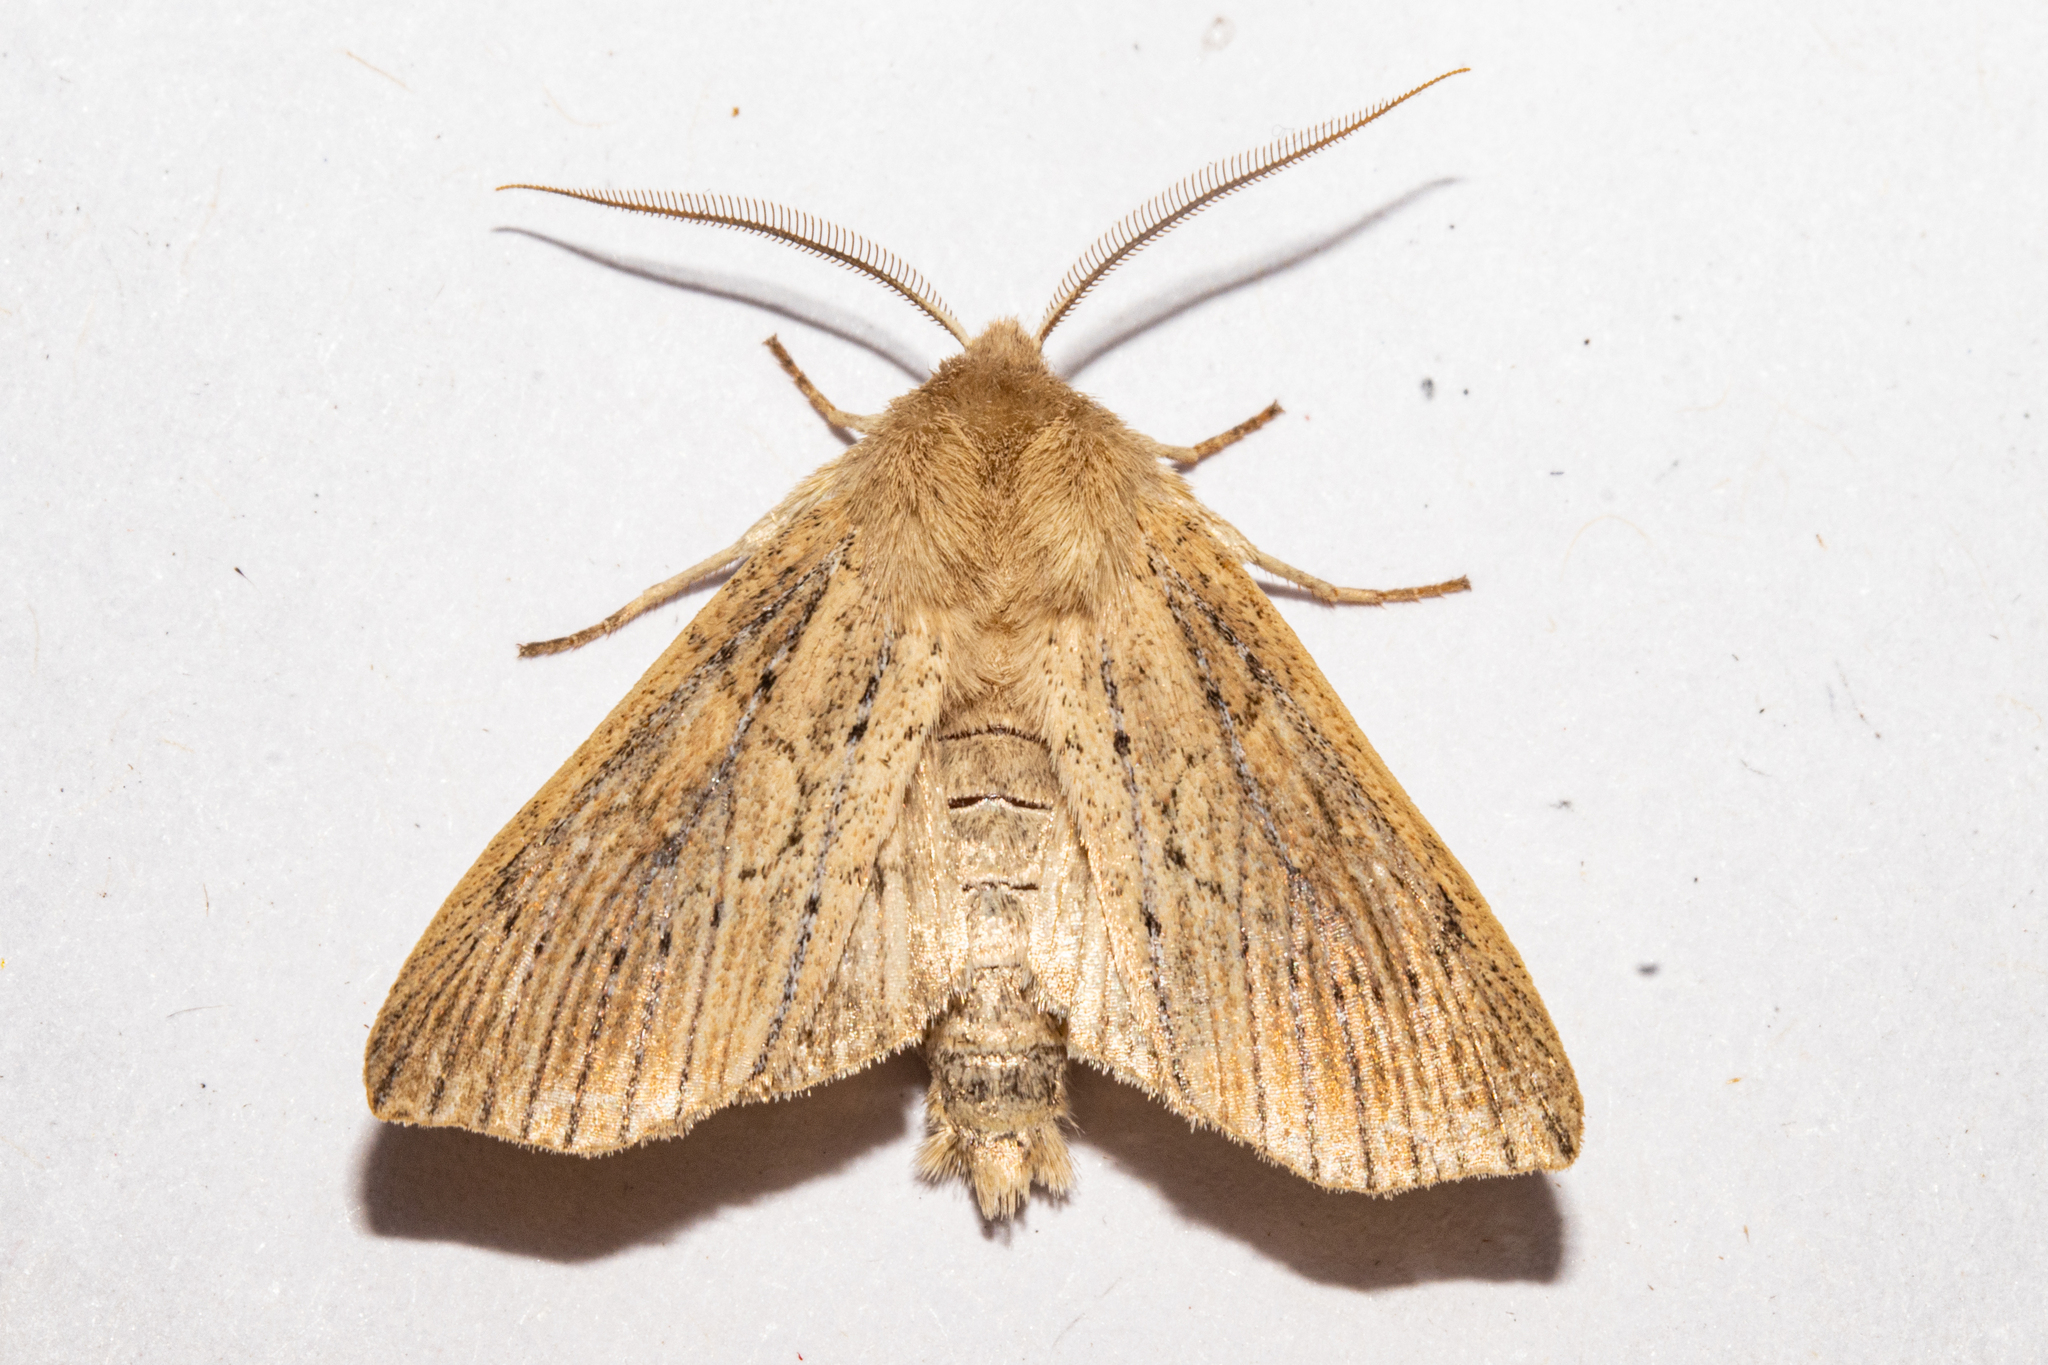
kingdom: Animalia
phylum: Arthropoda
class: Insecta
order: Lepidoptera
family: Noctuidae
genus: Ichneutica
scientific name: Ichneutica cornuta
